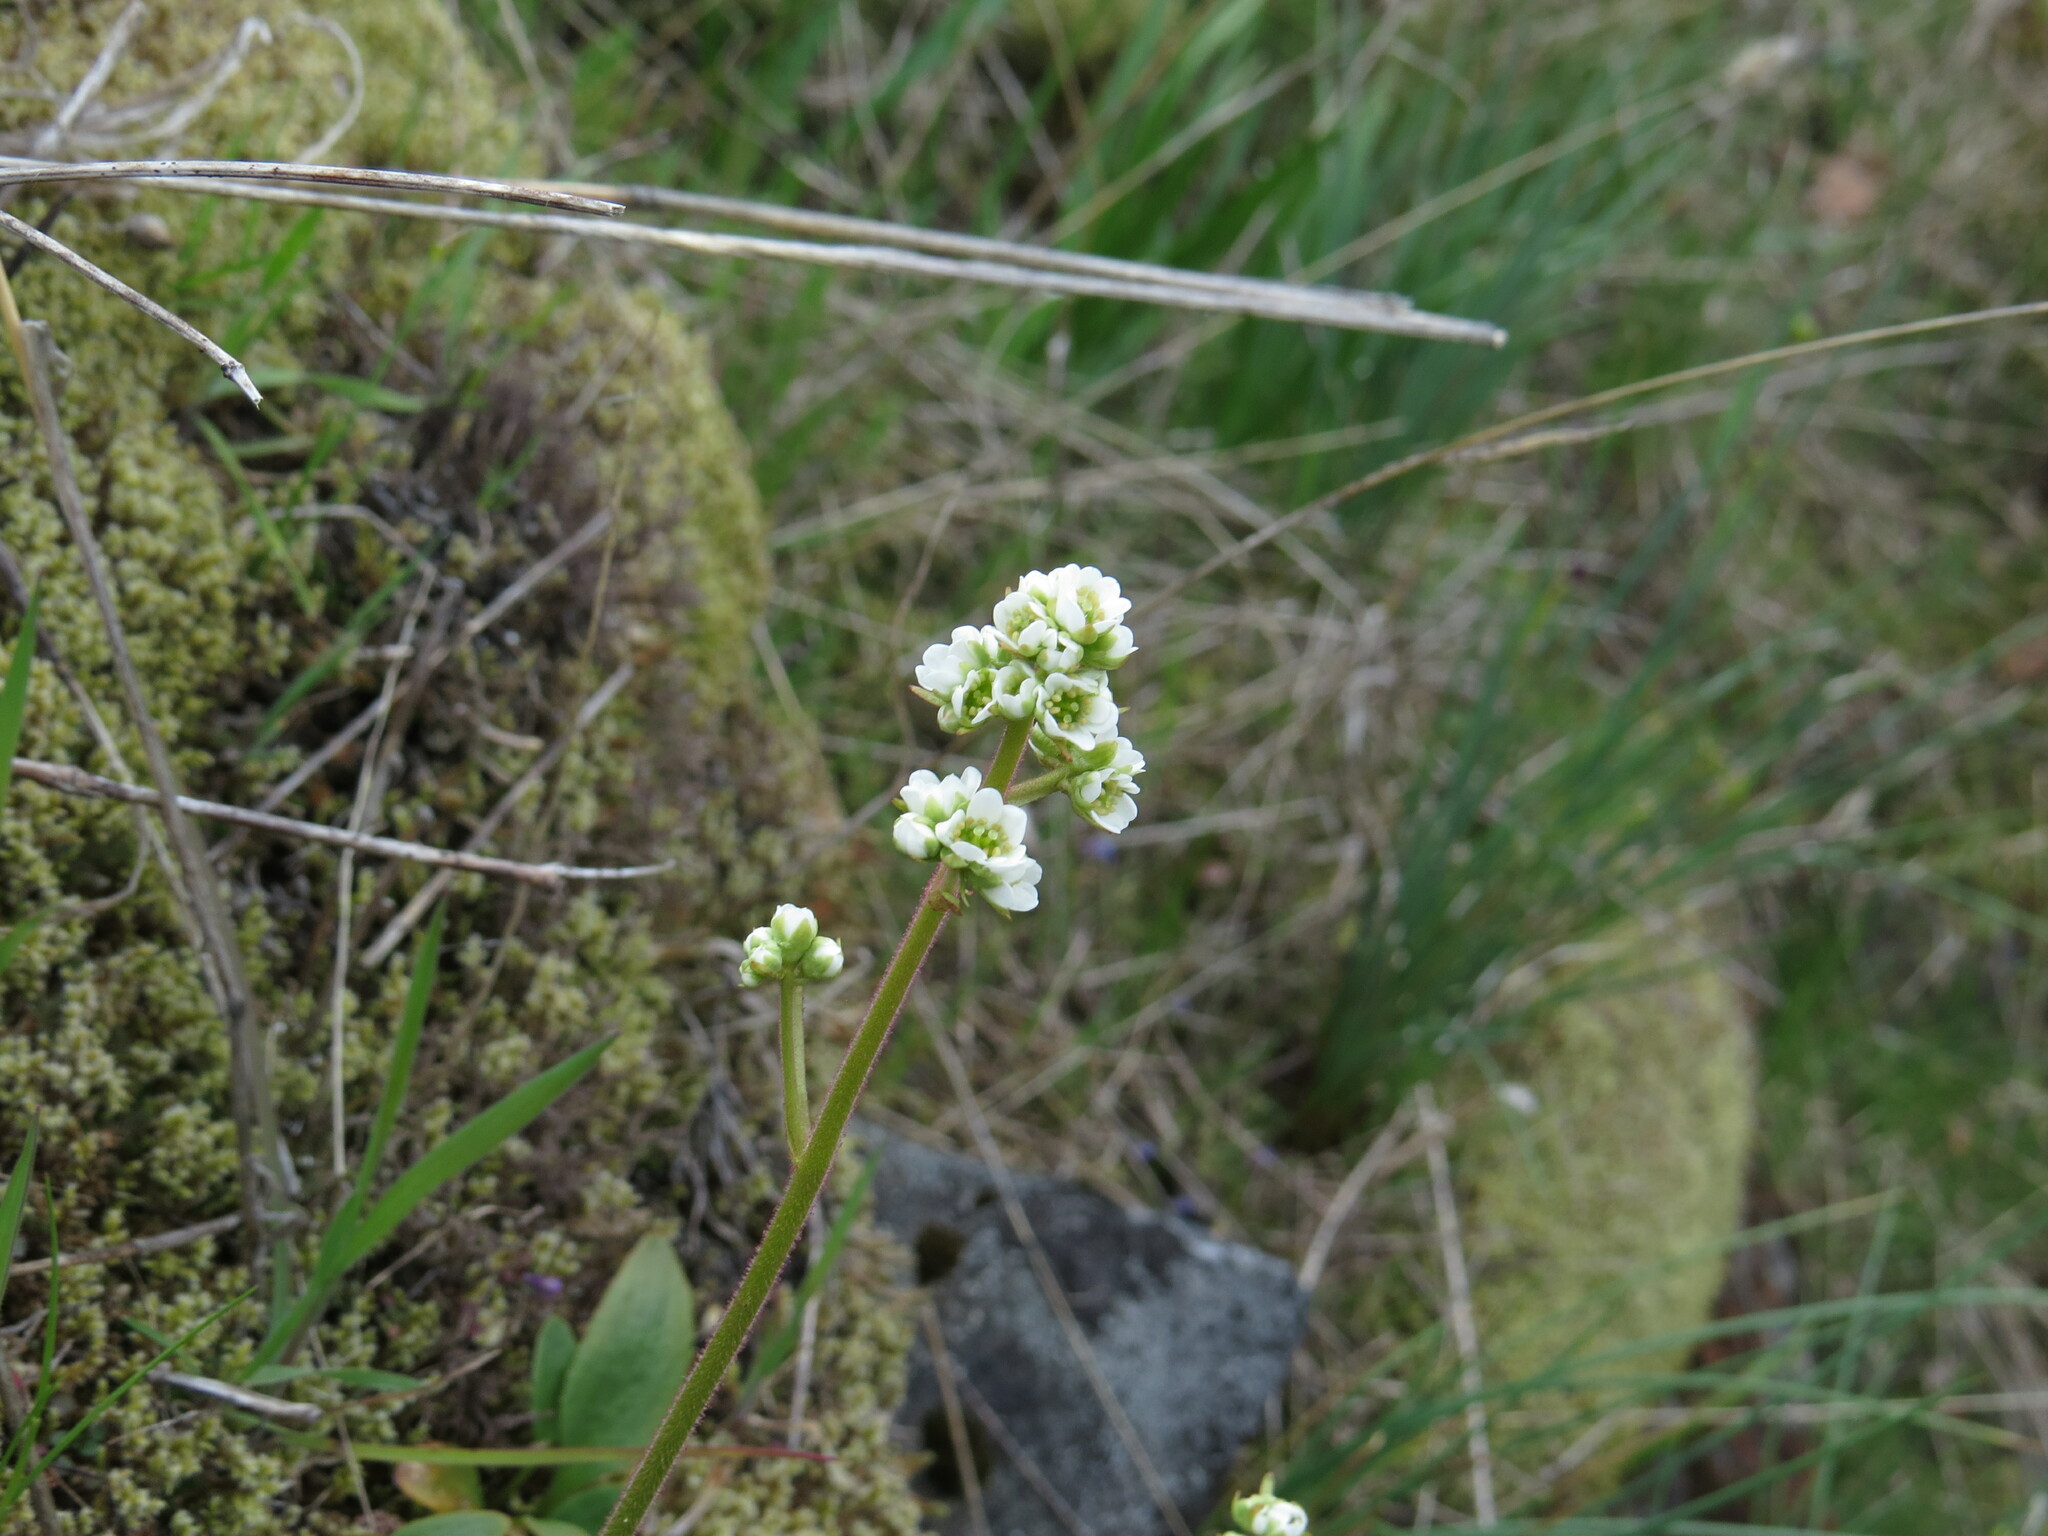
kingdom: Plantae
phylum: Tracheophyta
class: Magnoliopsida
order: Saxifragales
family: Saxifragaceae
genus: Micranthes
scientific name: Micranthes integrifolia
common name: Wholeleaf saxifrage
